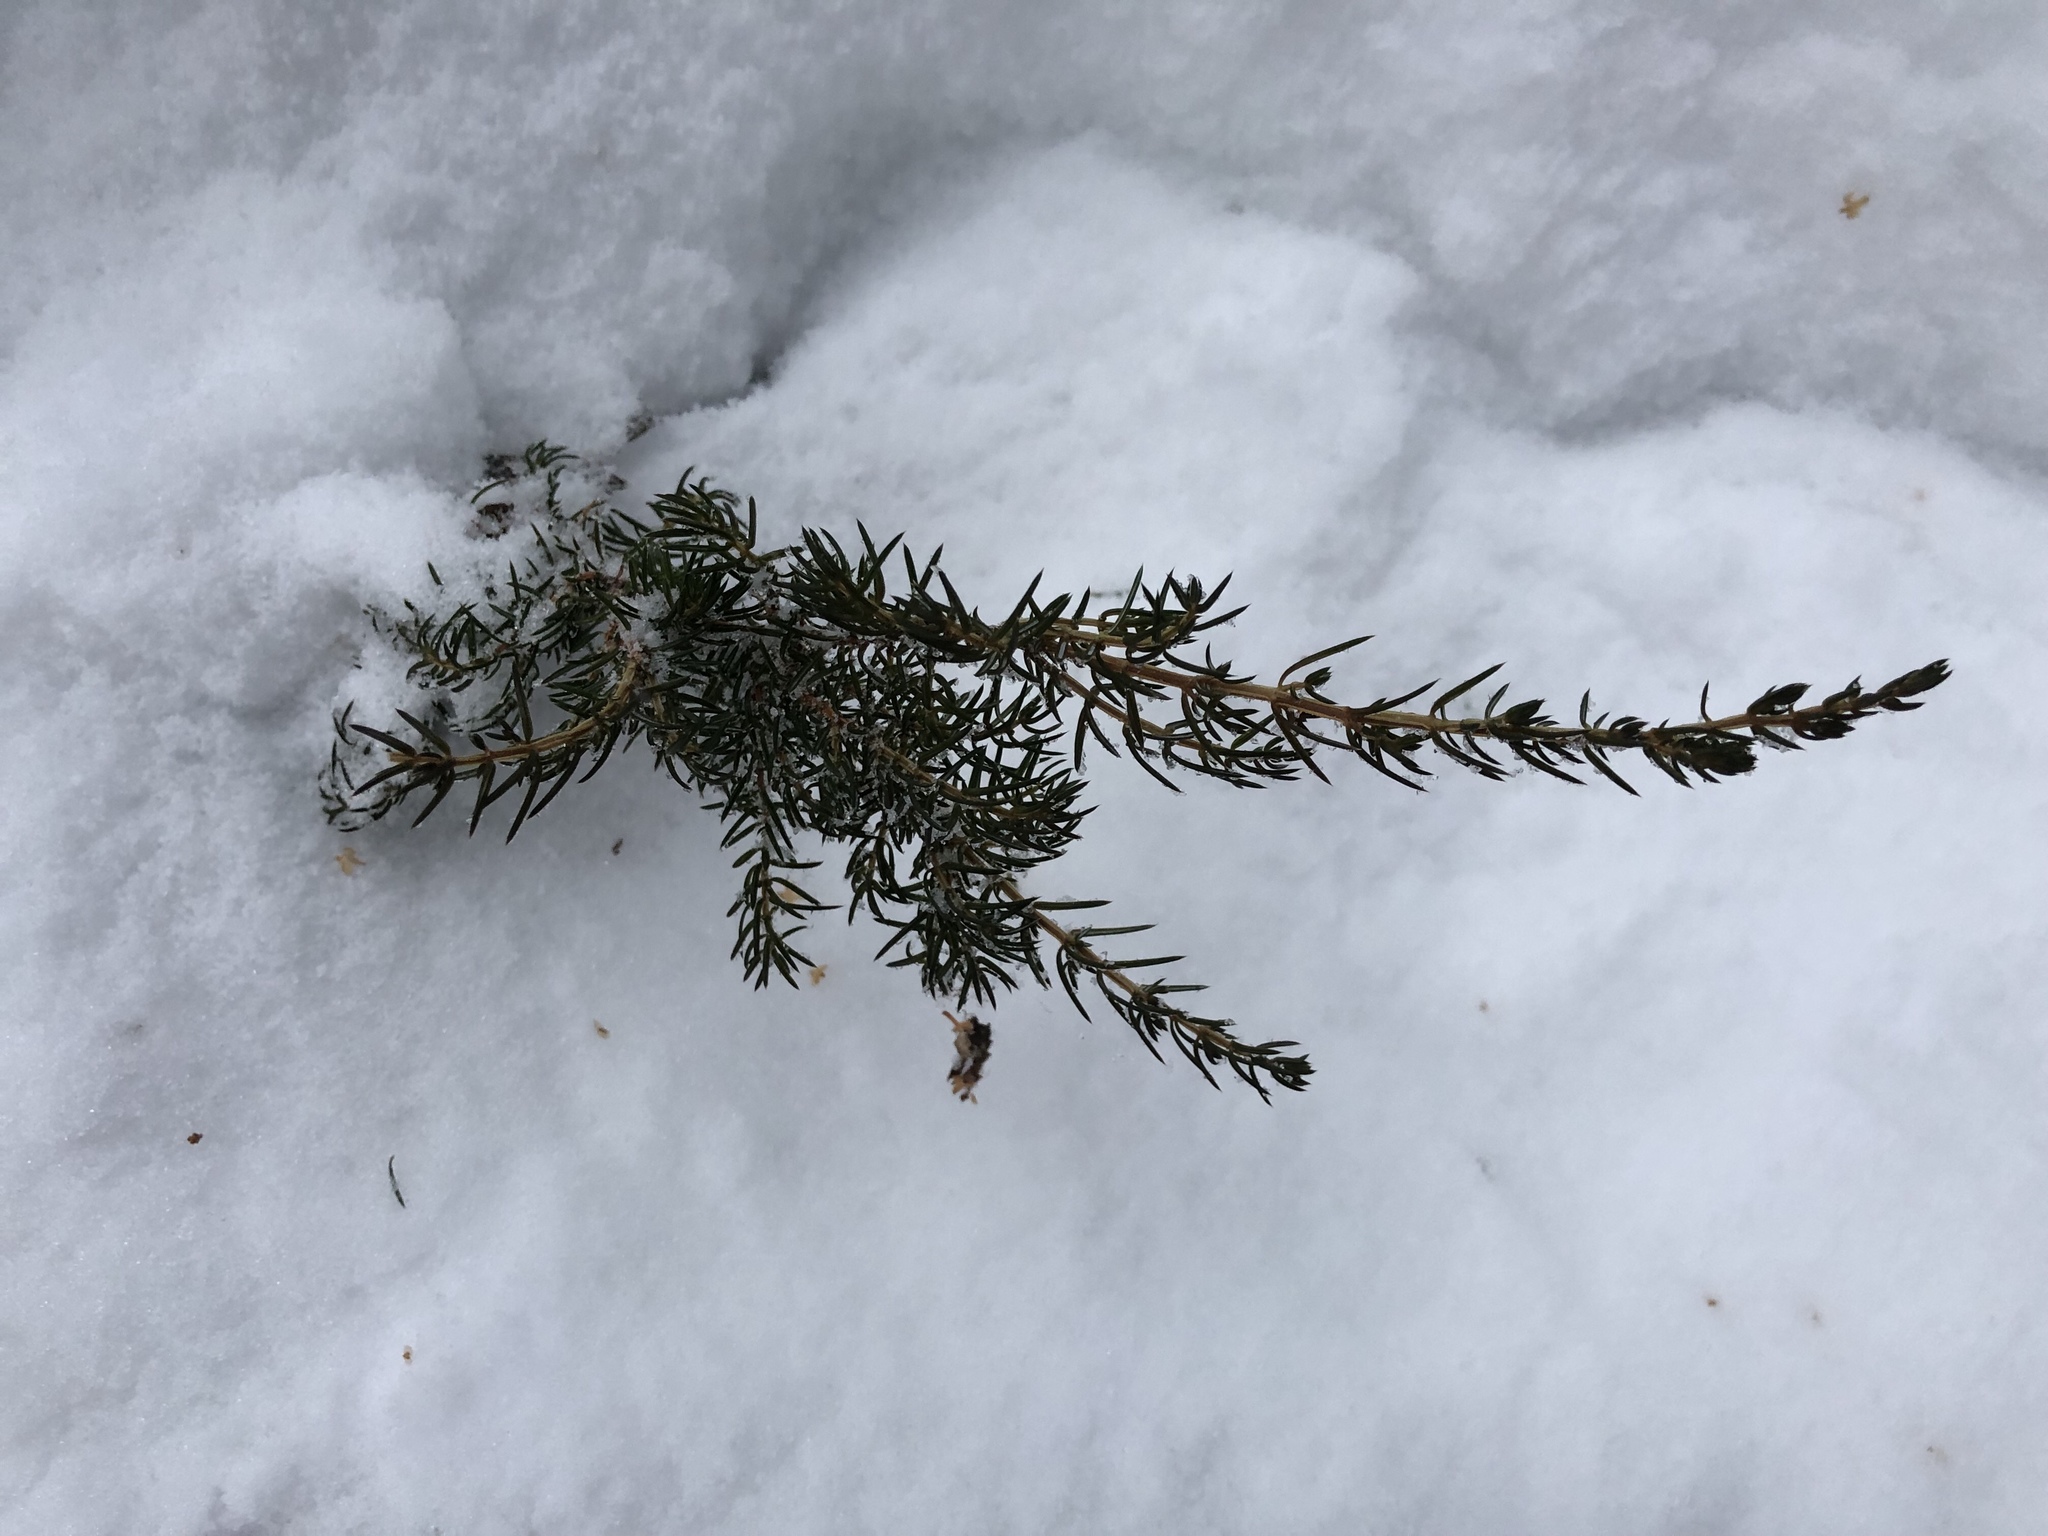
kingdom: Plantae
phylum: Tracheophyta
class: Pinopsida
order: Pinales
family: Cupressaceae
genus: Juniperus
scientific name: Juniperus communis
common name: Common juniper
